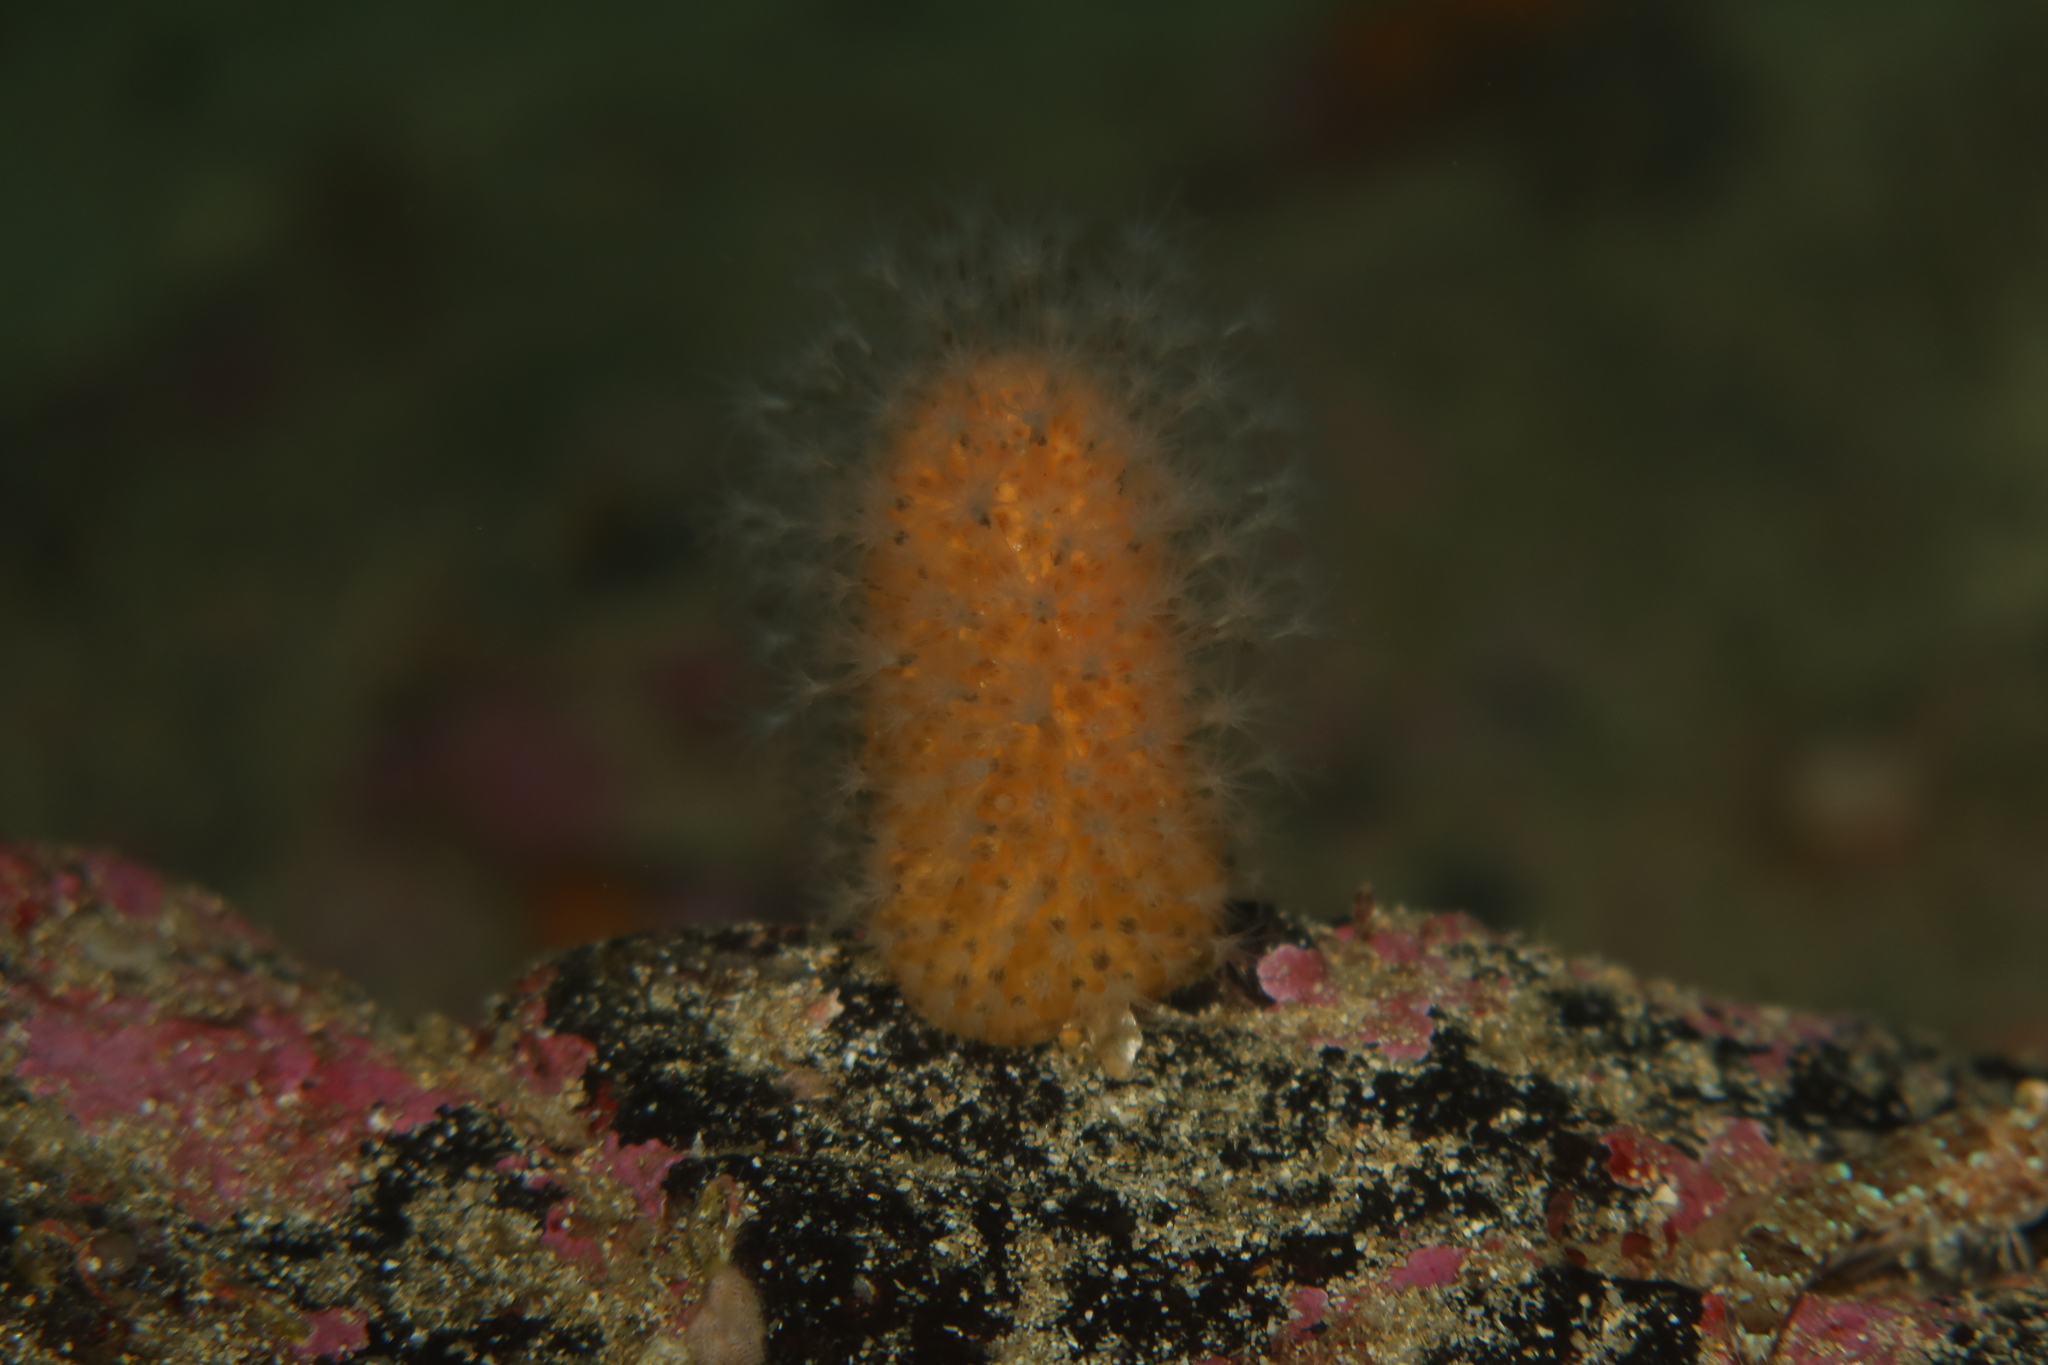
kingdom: Animalia
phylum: Cnidaria
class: Anthozoa
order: Malacalcyonacea
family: Alcyoniidae
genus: Alcyonium
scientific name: Alcyonium digitatum
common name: Dead man's fingers
